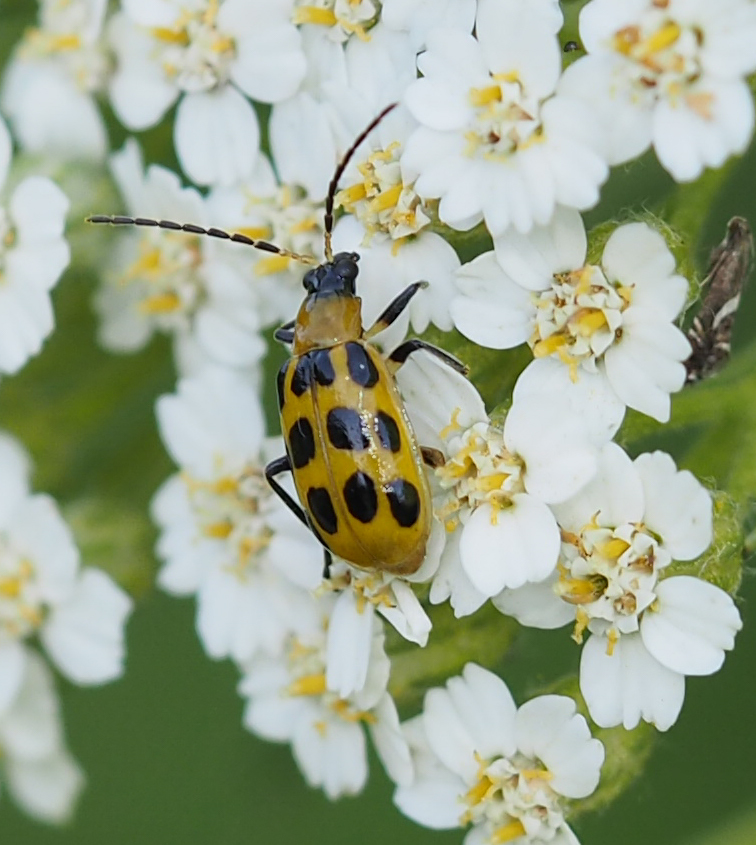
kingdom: Animalia
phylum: Arthropoda
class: Insecta
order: Coleoptera
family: Chrysomelidae
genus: Diabrotica
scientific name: Diabrotica undecimpunctata
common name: Spotted cucumber beetle
